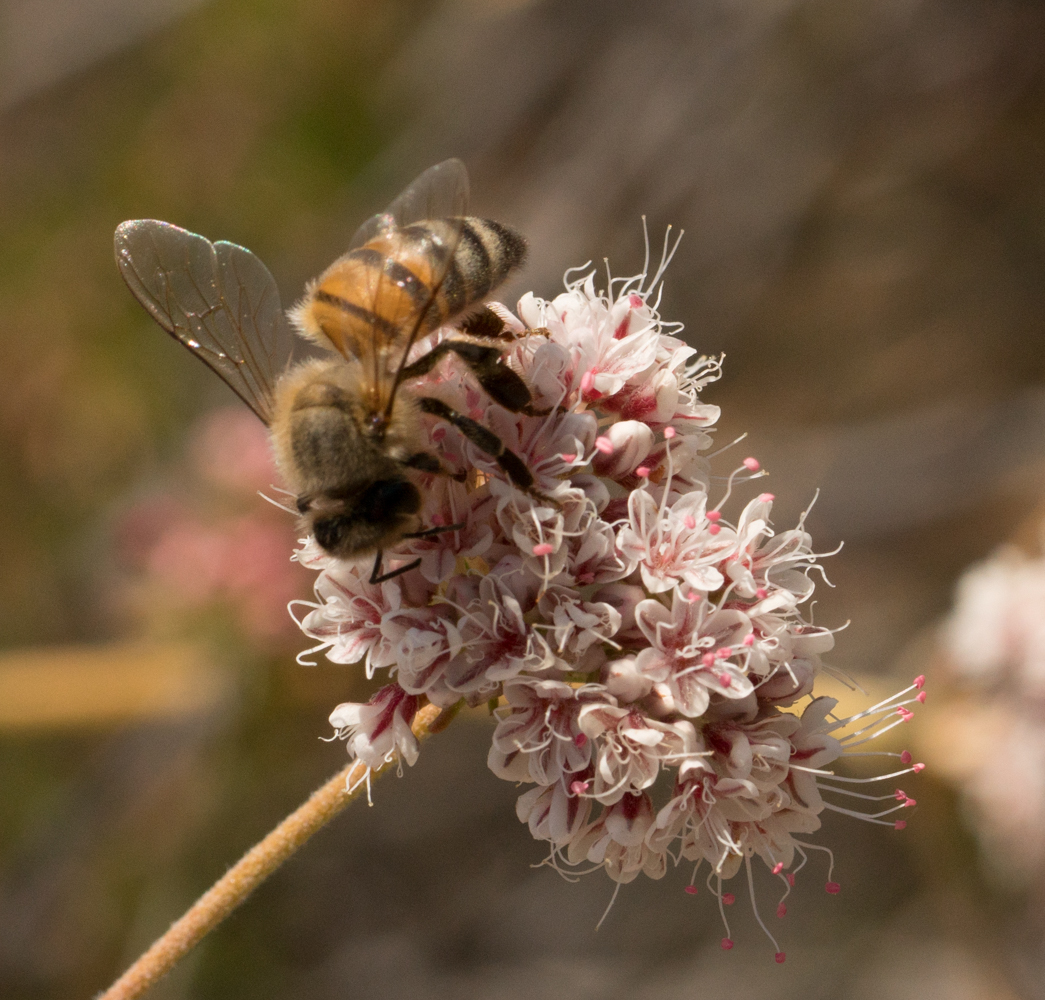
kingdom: Animalia
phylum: Arthropoda
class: Insecta
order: Hymenoptera
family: Apidae
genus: Apis
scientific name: Apis mellifera
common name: Honey bee
